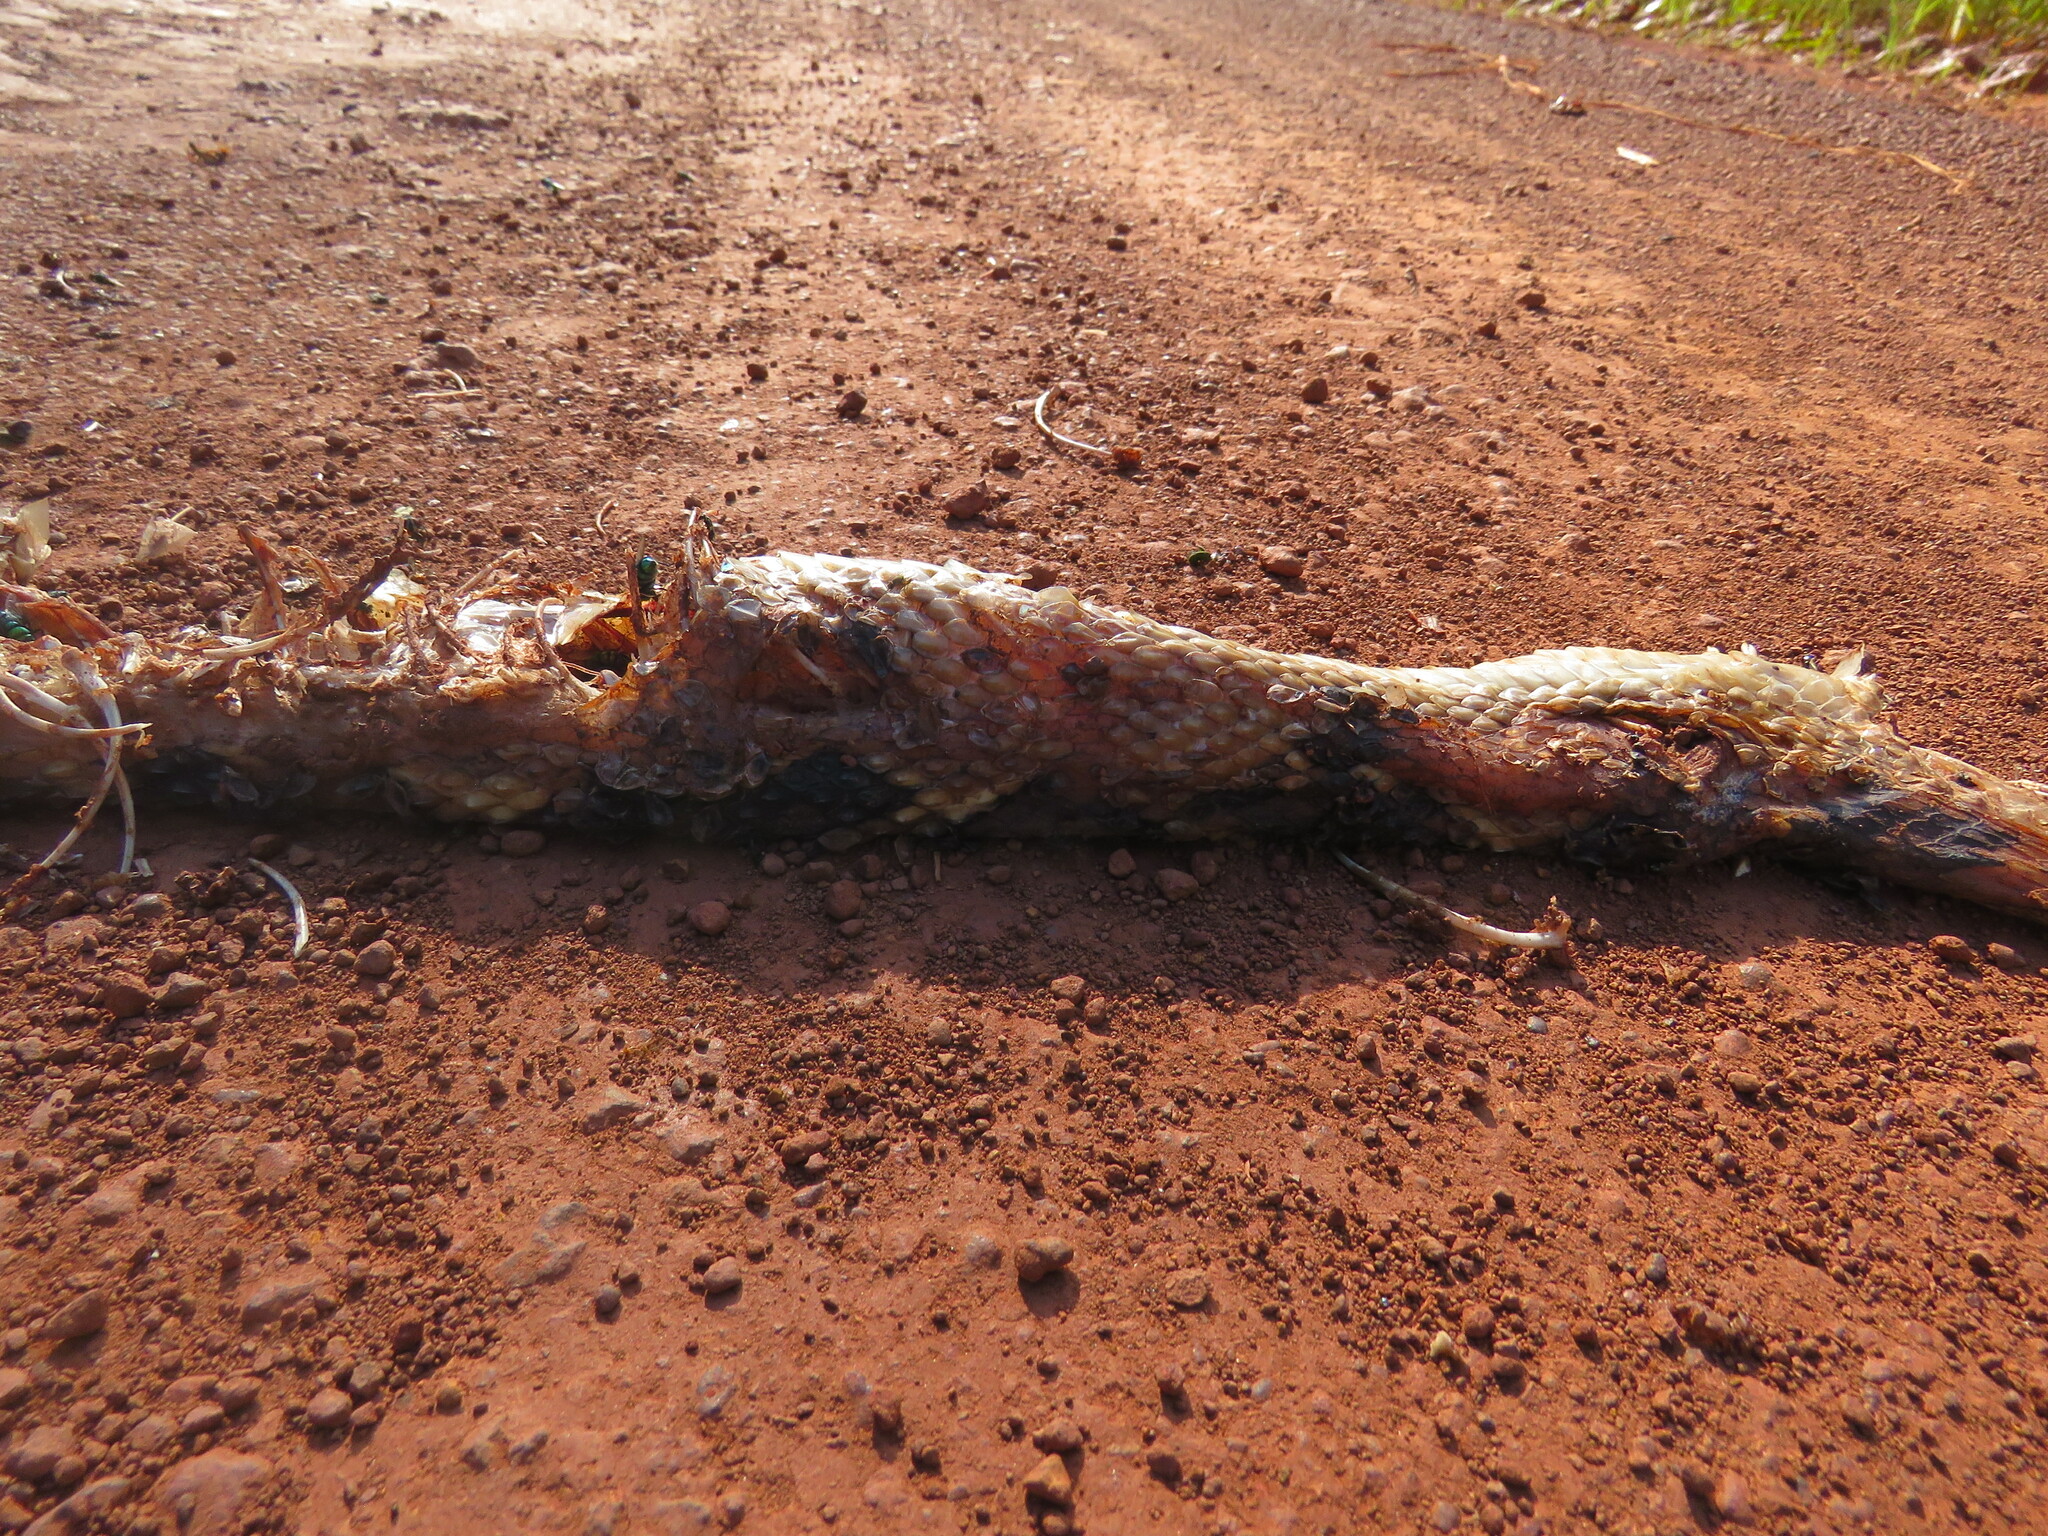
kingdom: Animalia
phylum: Chordata
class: Squamata
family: Viperidae
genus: Lachesis
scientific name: Lachesis muta
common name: South american bushmaster
